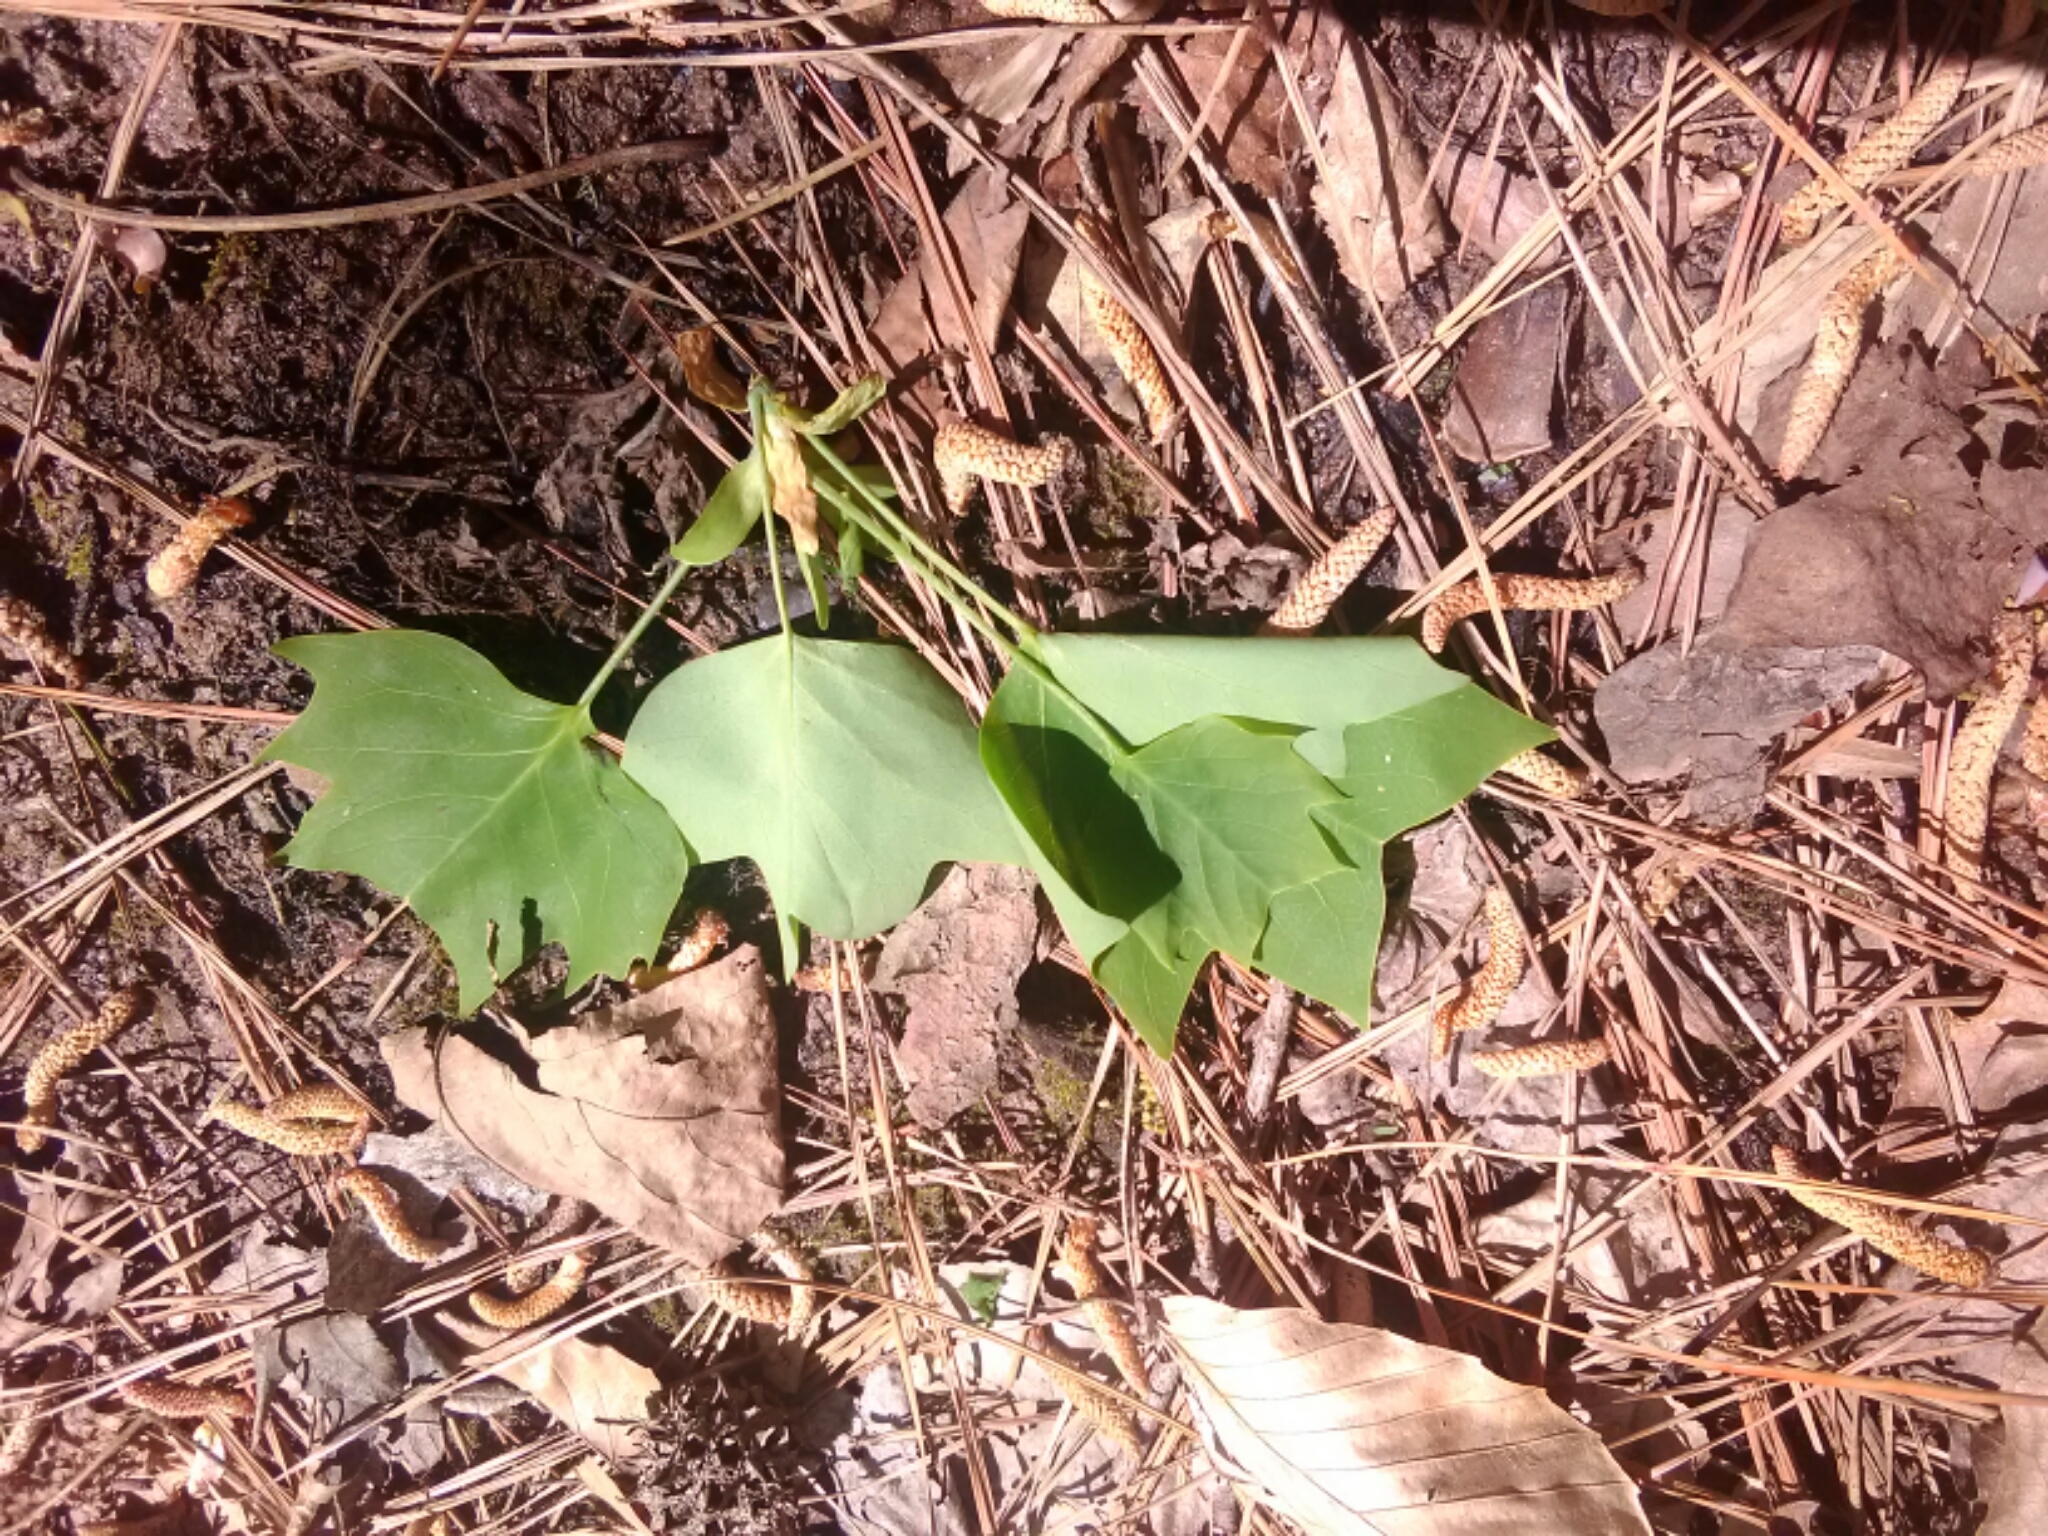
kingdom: Plantae
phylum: Tracheophyta
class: Magnoliopsida
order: Magnoliales
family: Magnoliaceae
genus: Liriodendron
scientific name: Liriodendron tulipifera
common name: Tulip tree
